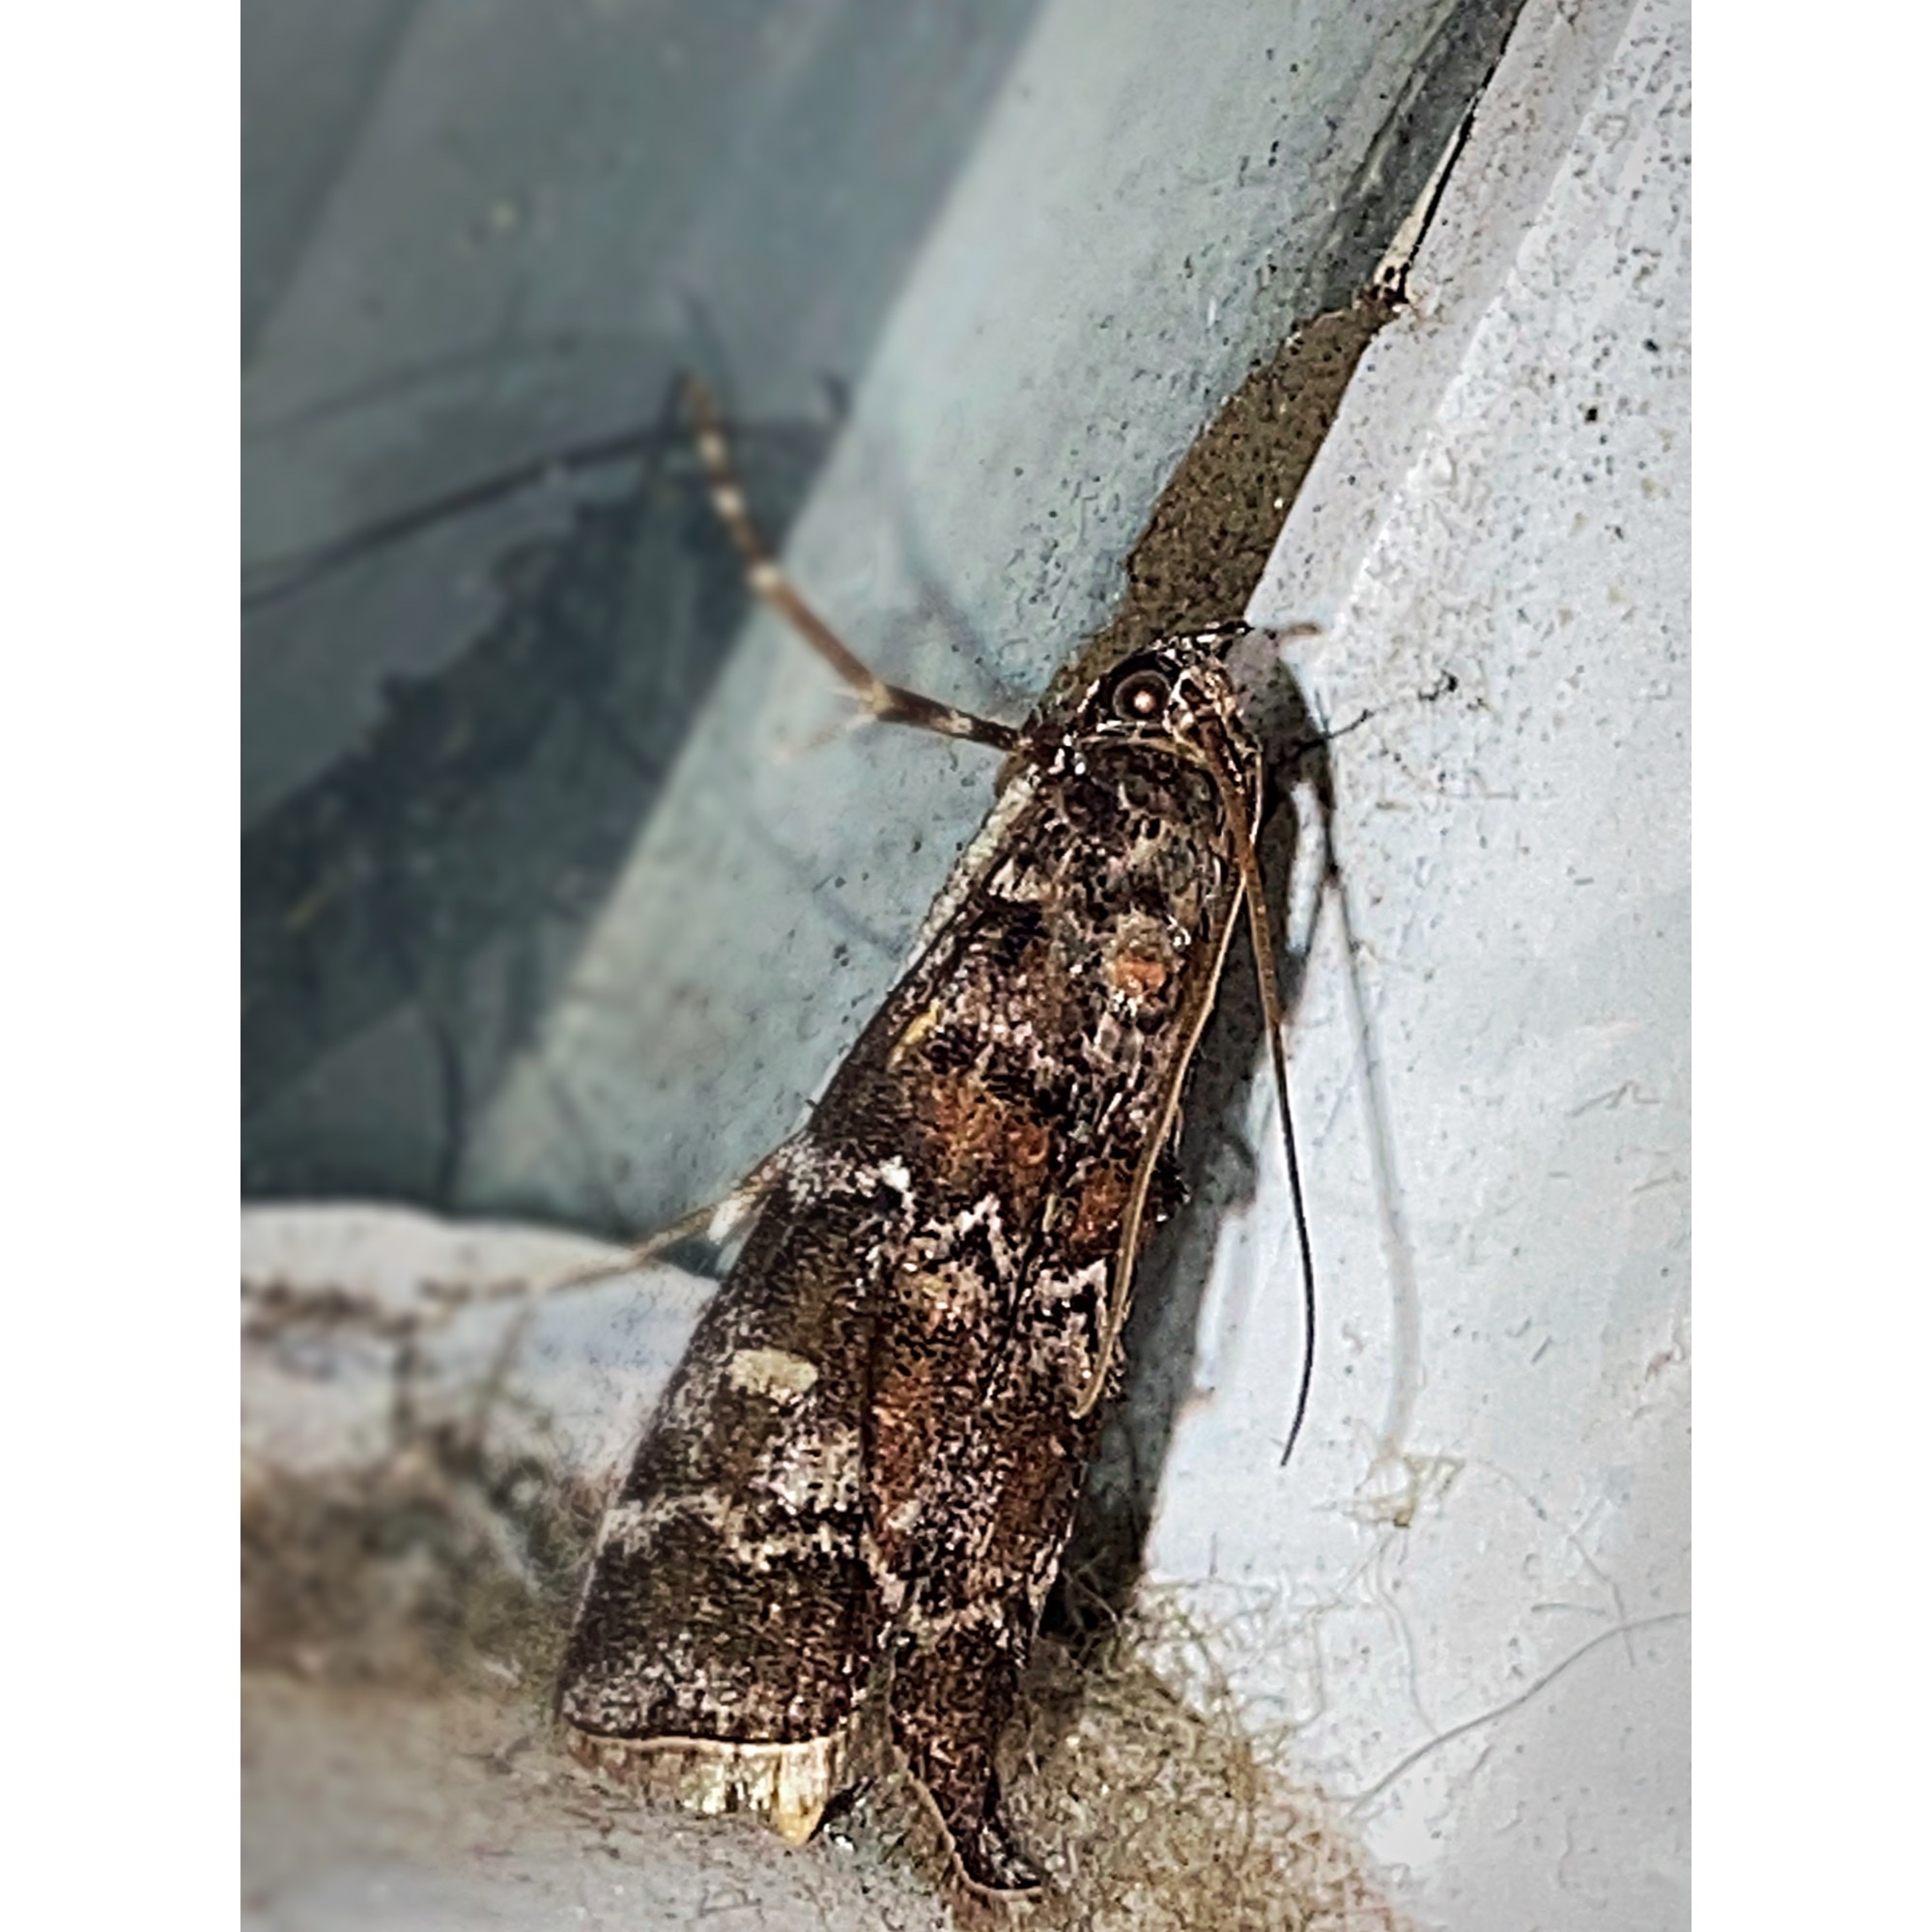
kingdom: Animalia
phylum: Arthropoda
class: Insecta
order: Lepidoptera
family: Pyralidae
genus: Dioryctria
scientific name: Dioryctria amatella
